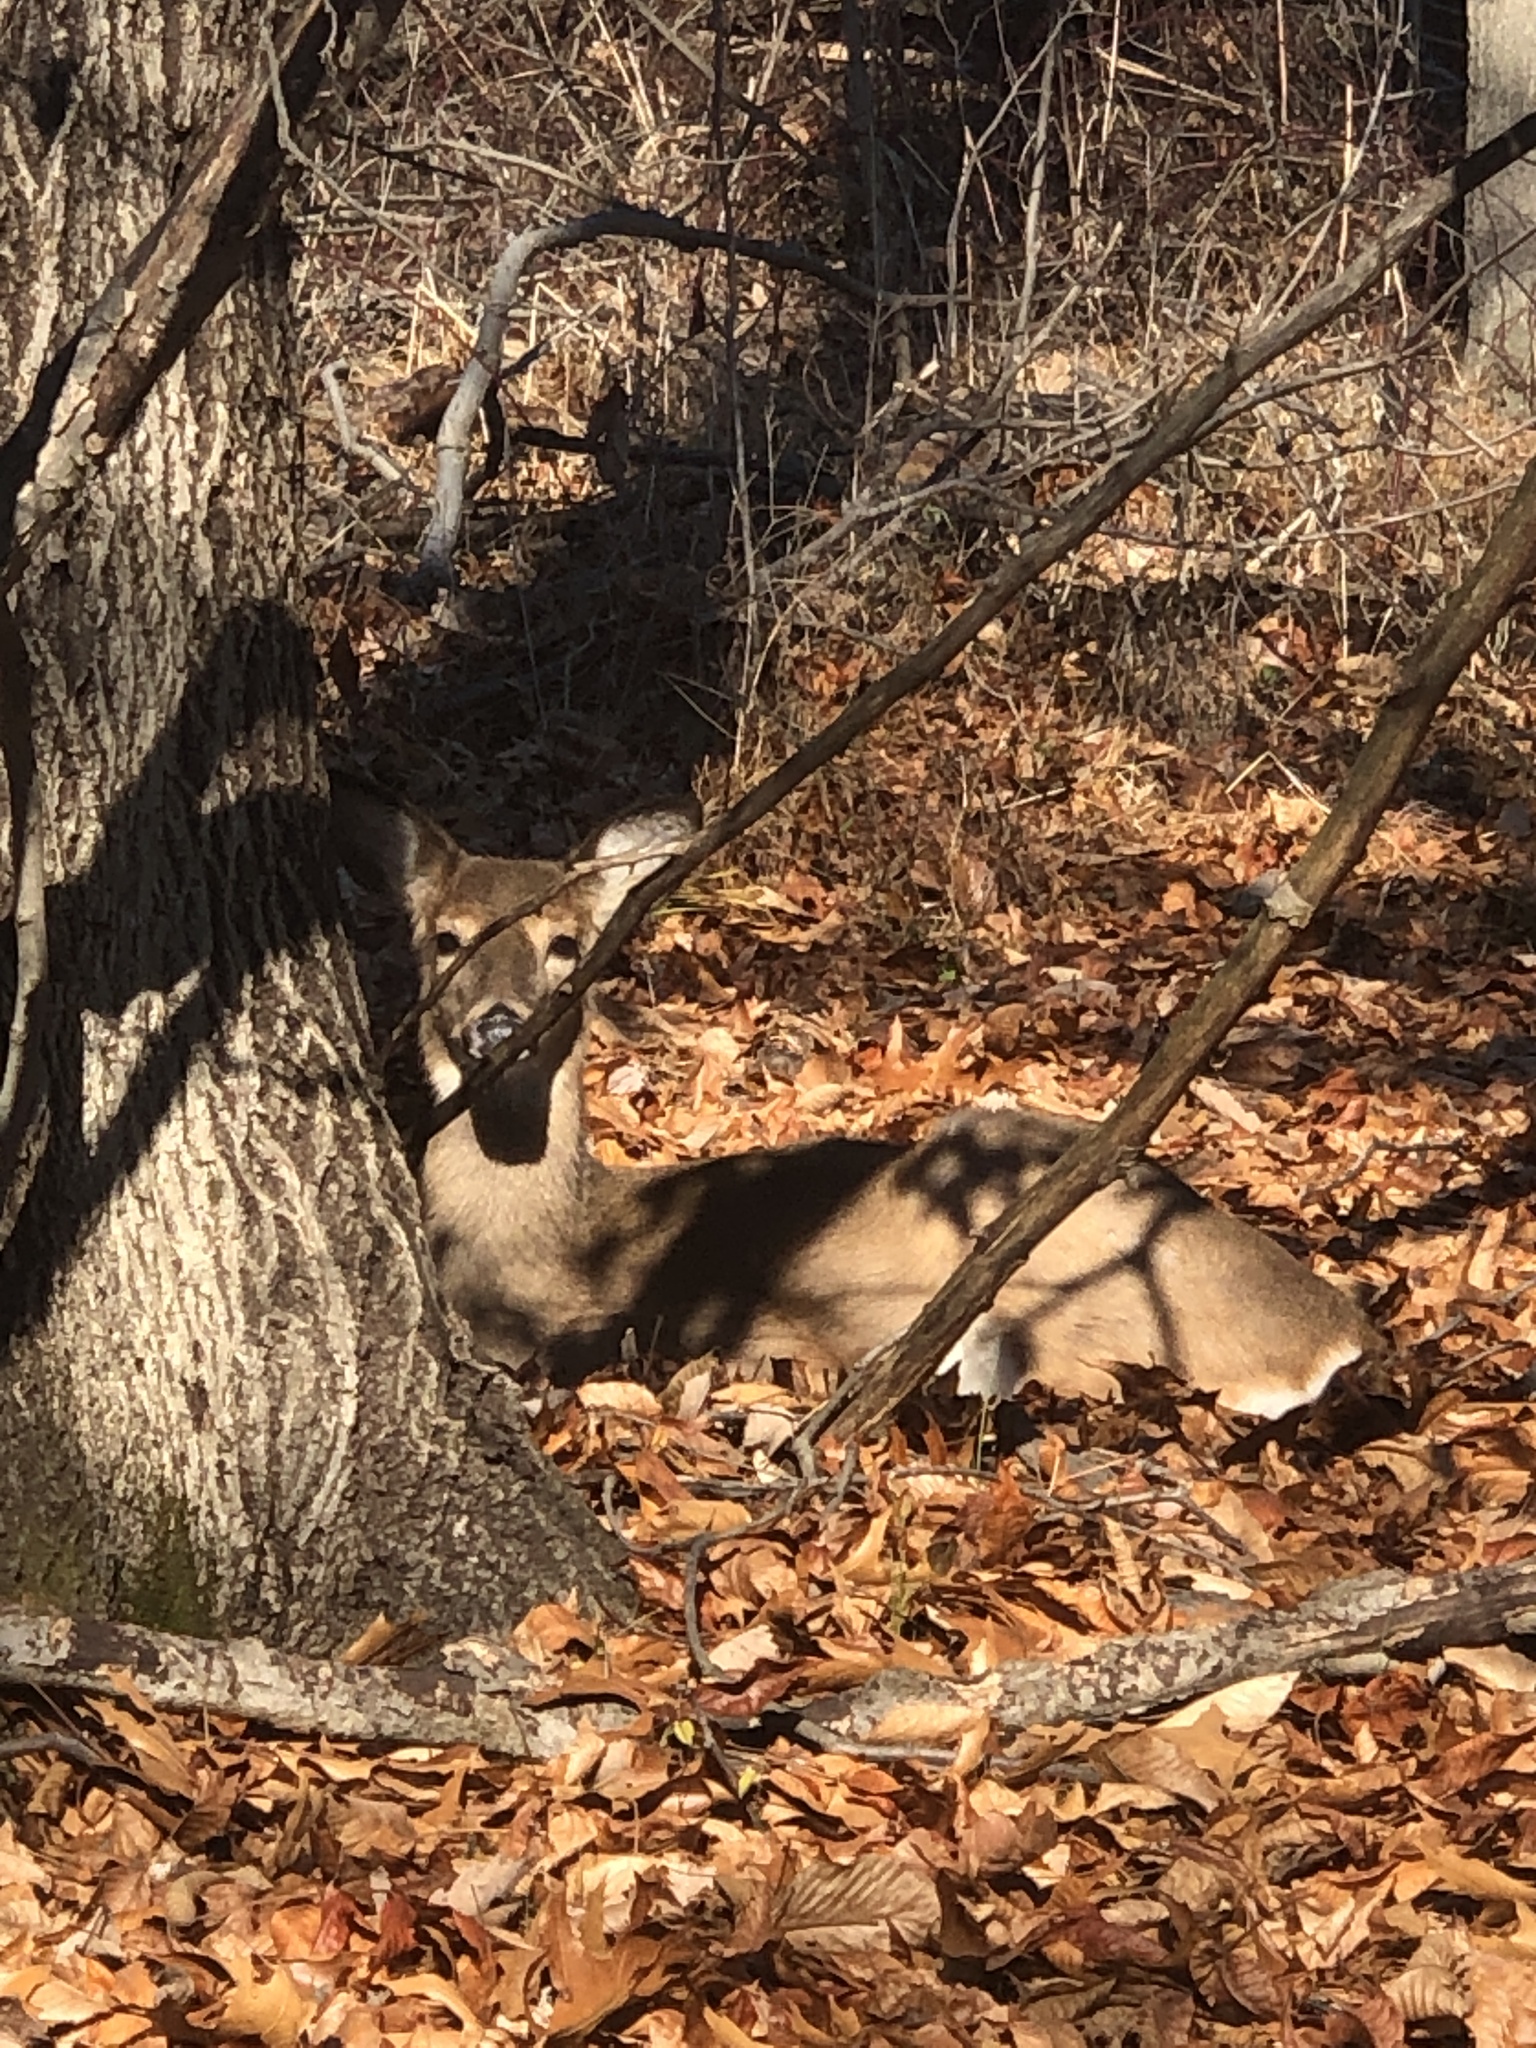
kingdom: Animalia
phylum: Chordata
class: Mammalia
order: Artiodactyla
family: Cervidae
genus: Odocoileus
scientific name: Odocoileus virginianus
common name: White-tailed deer
